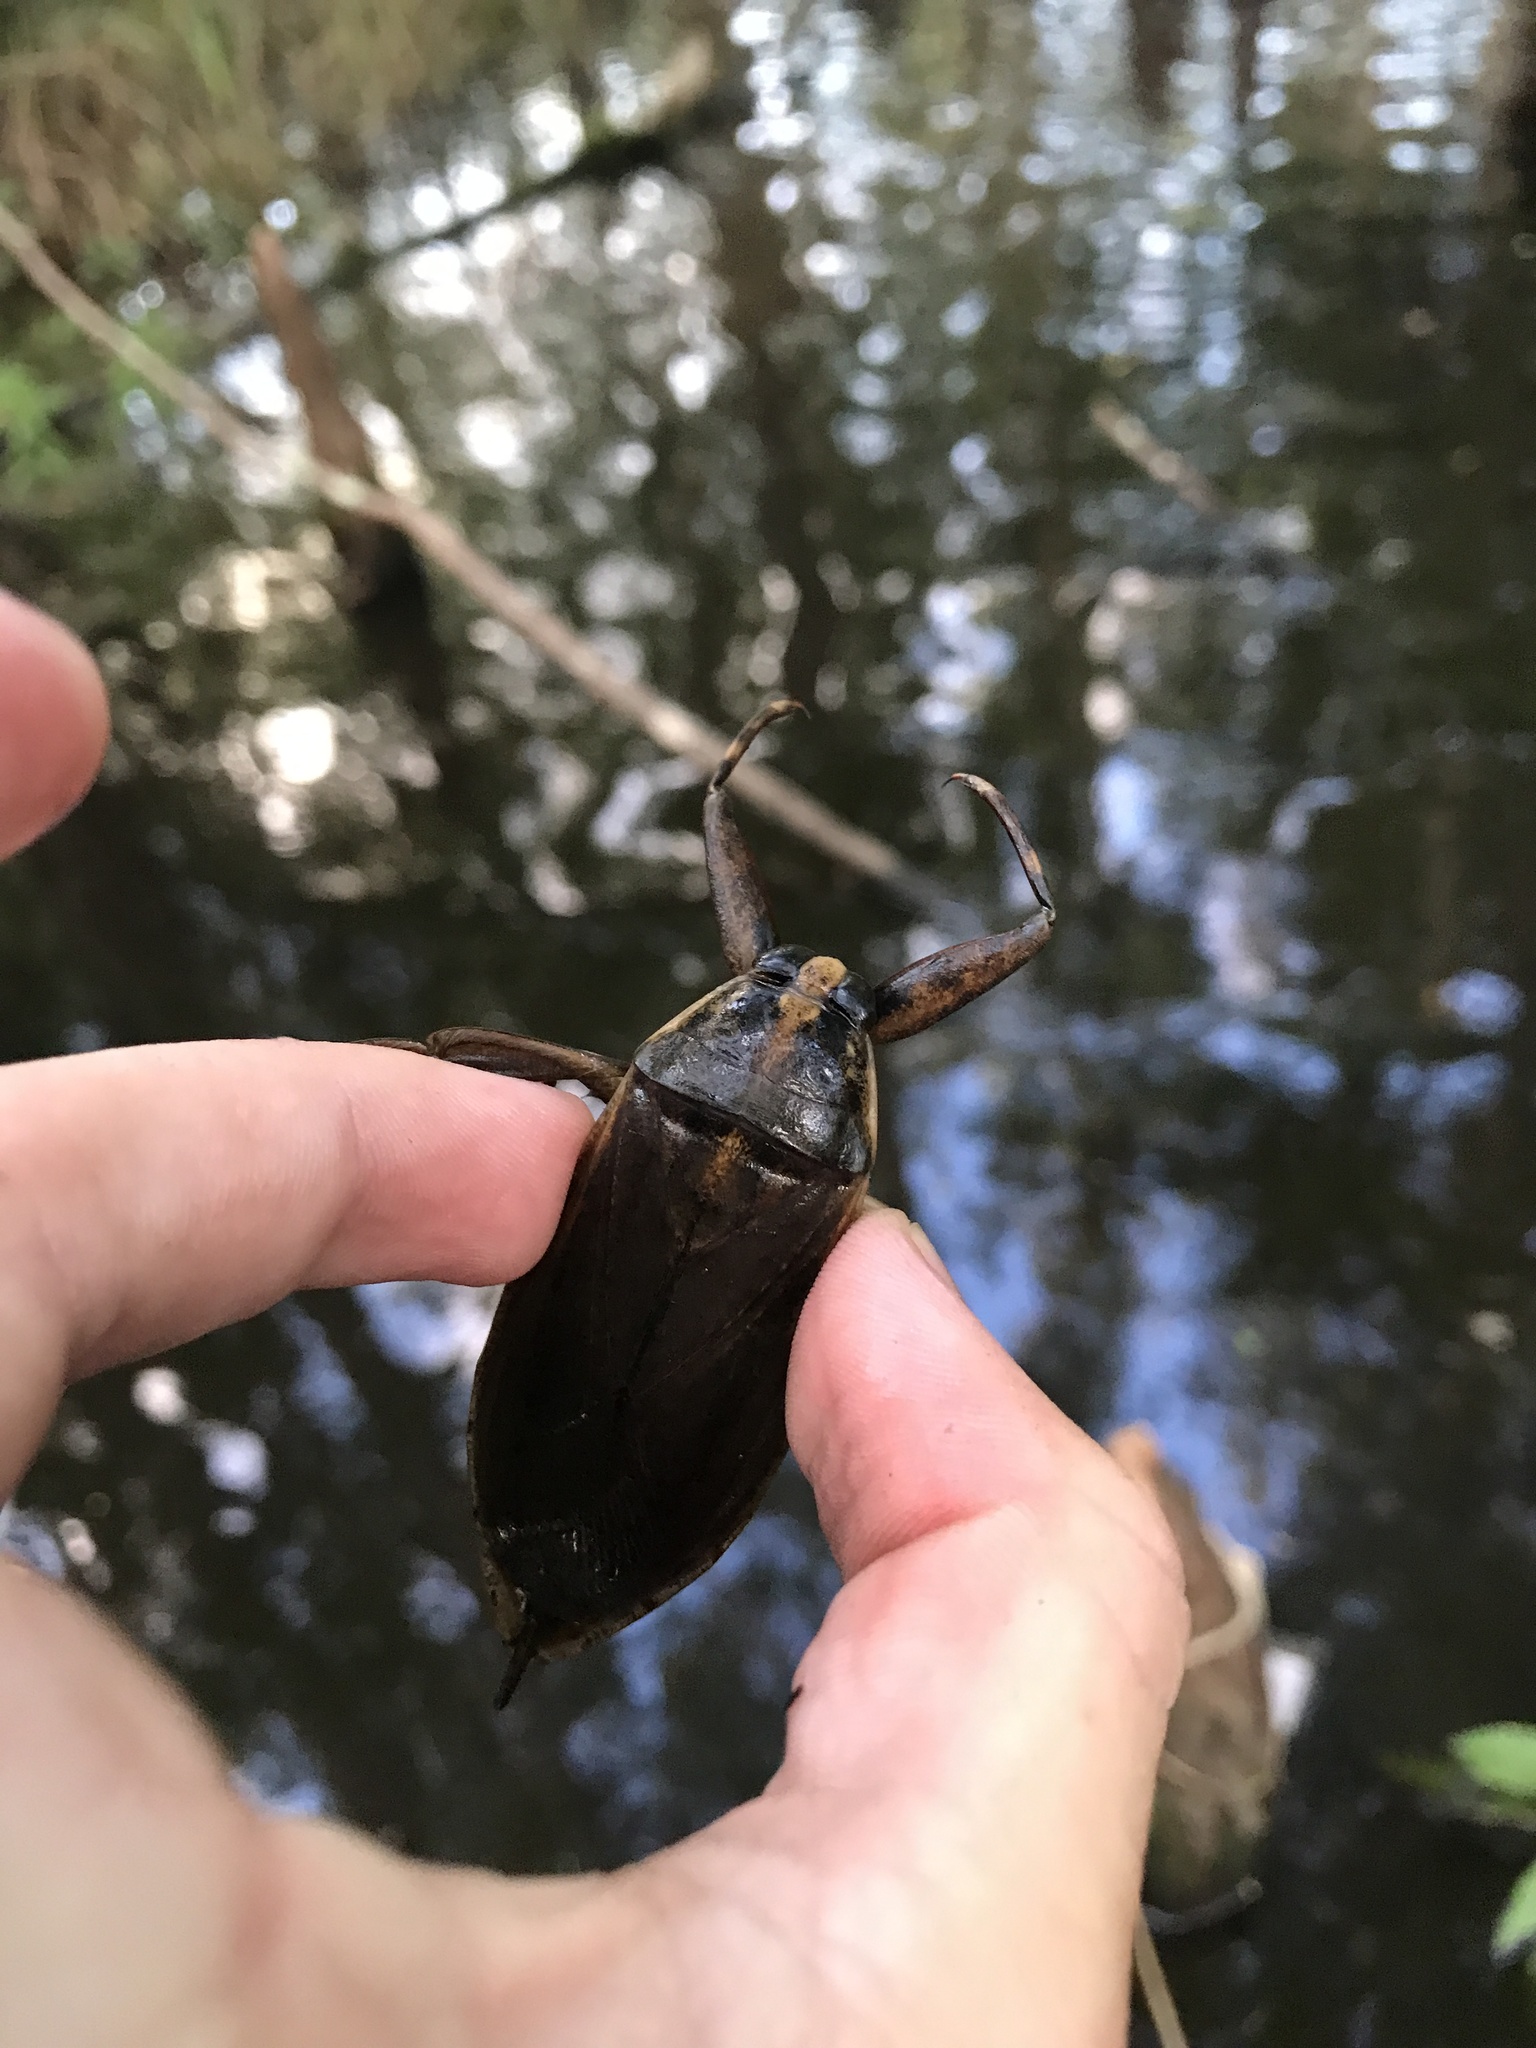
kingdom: Animalia
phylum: Arthropoda
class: Insecta
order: Hemiptera
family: Belostomatidae
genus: Benacus
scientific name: Benacus griseus
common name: Eastern toe-biter
